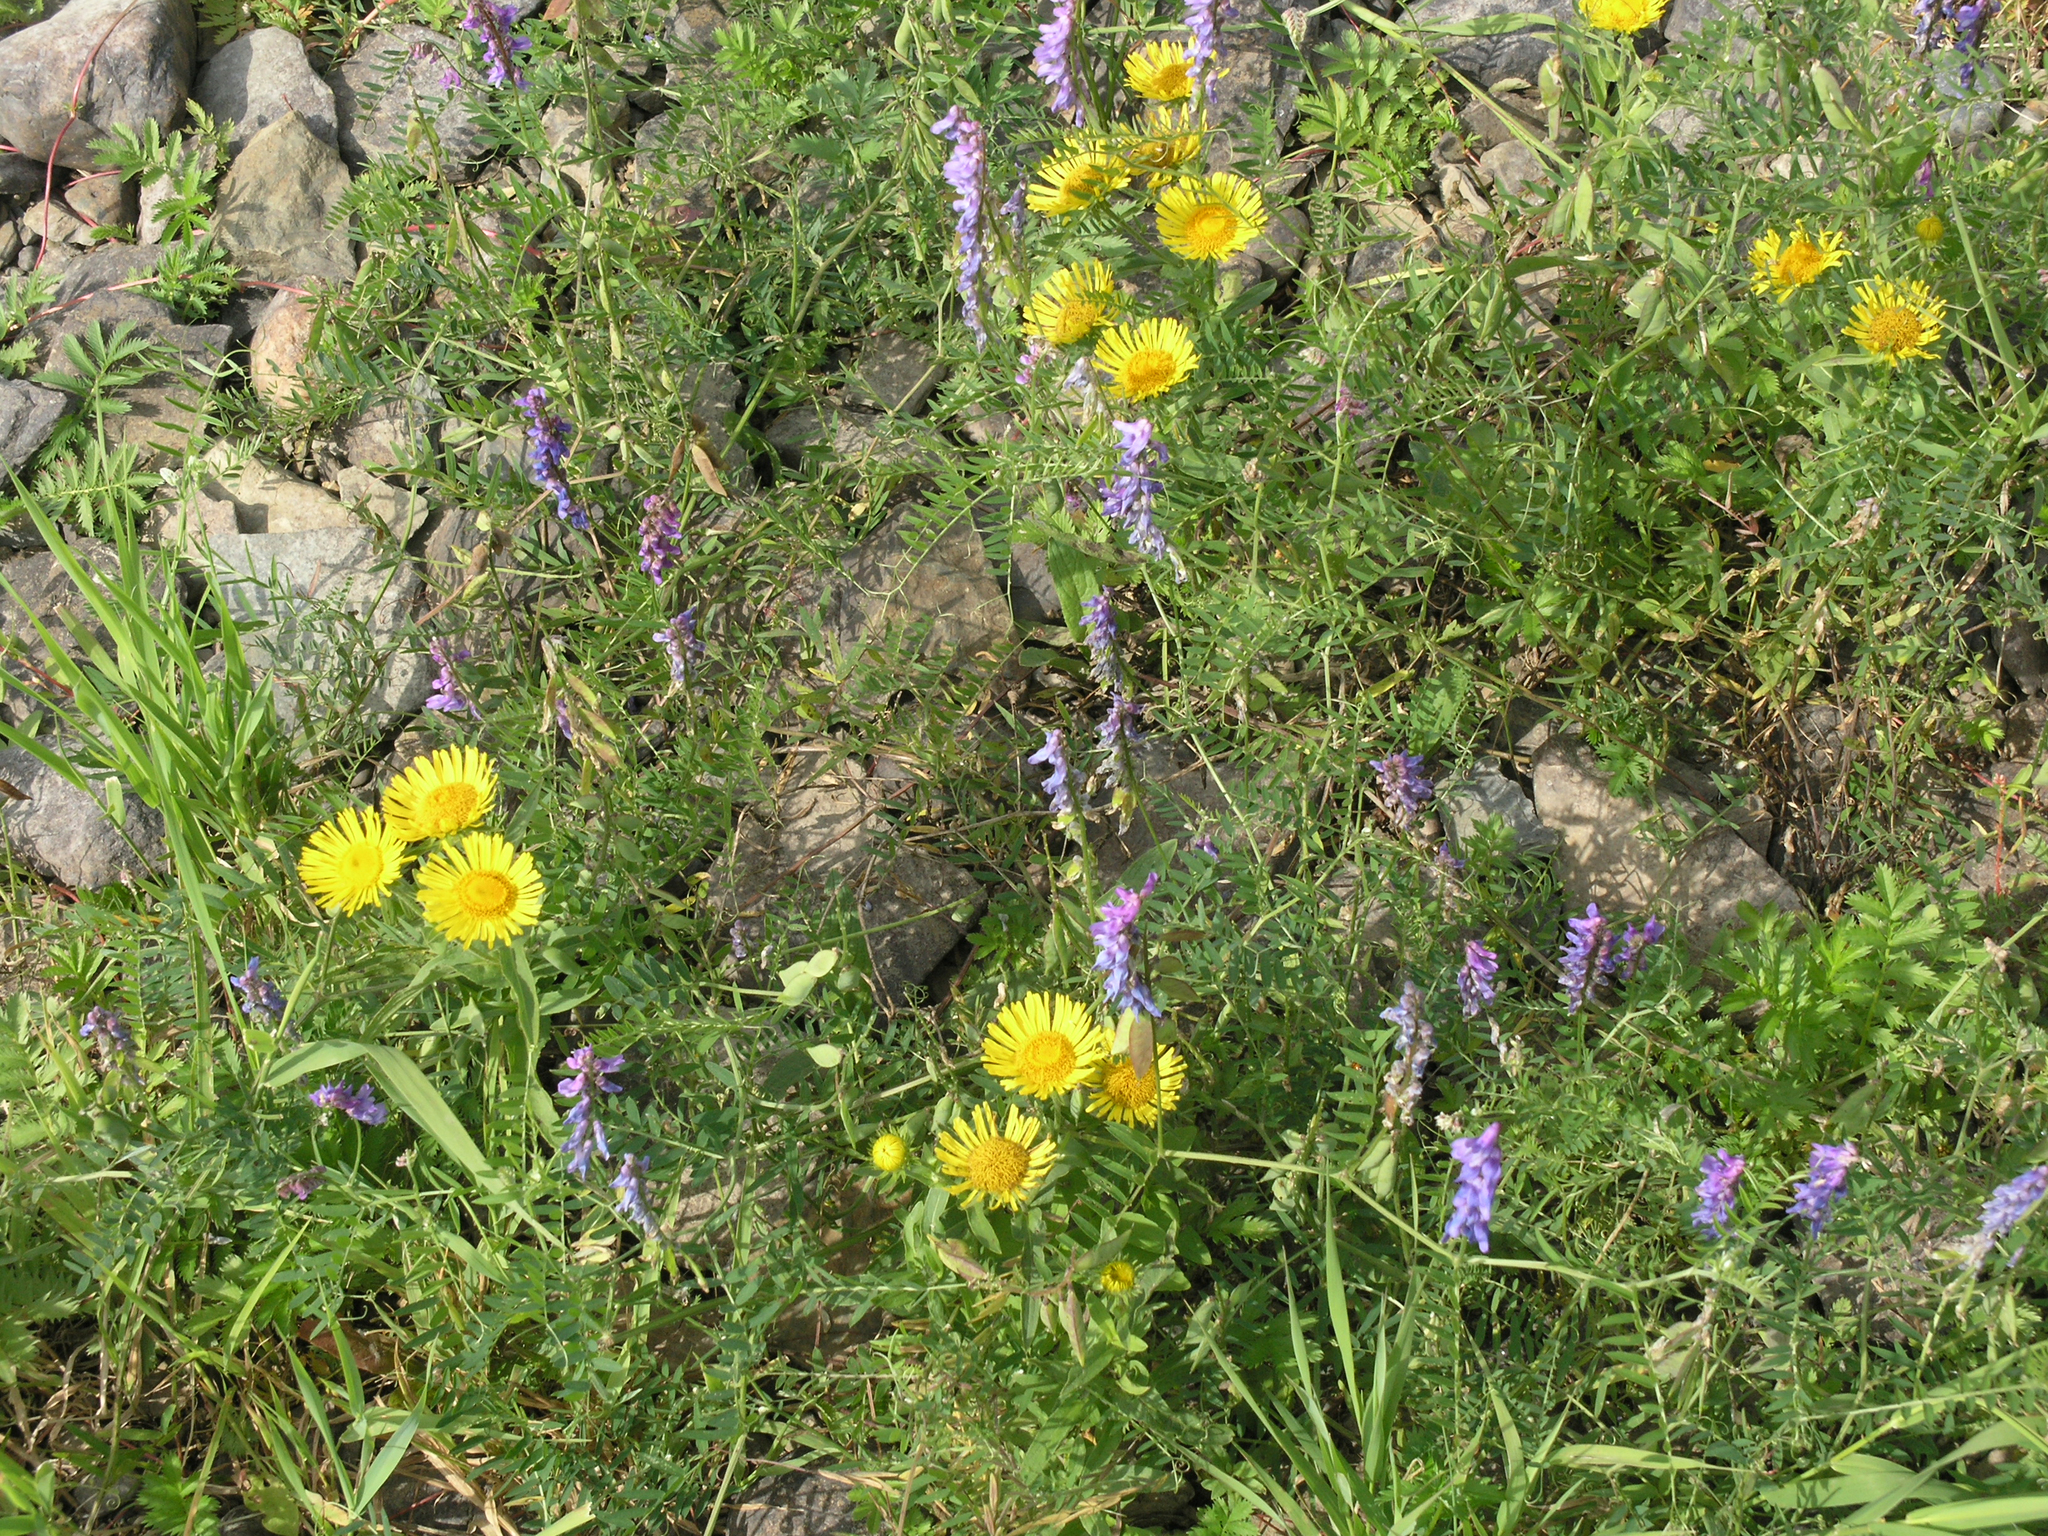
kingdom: Plantae
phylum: Tracheophyta
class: Magnoliopsida
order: Asterales
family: Asteraceae
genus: Pentanema
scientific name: Pentanema britannicum
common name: British elecampane
